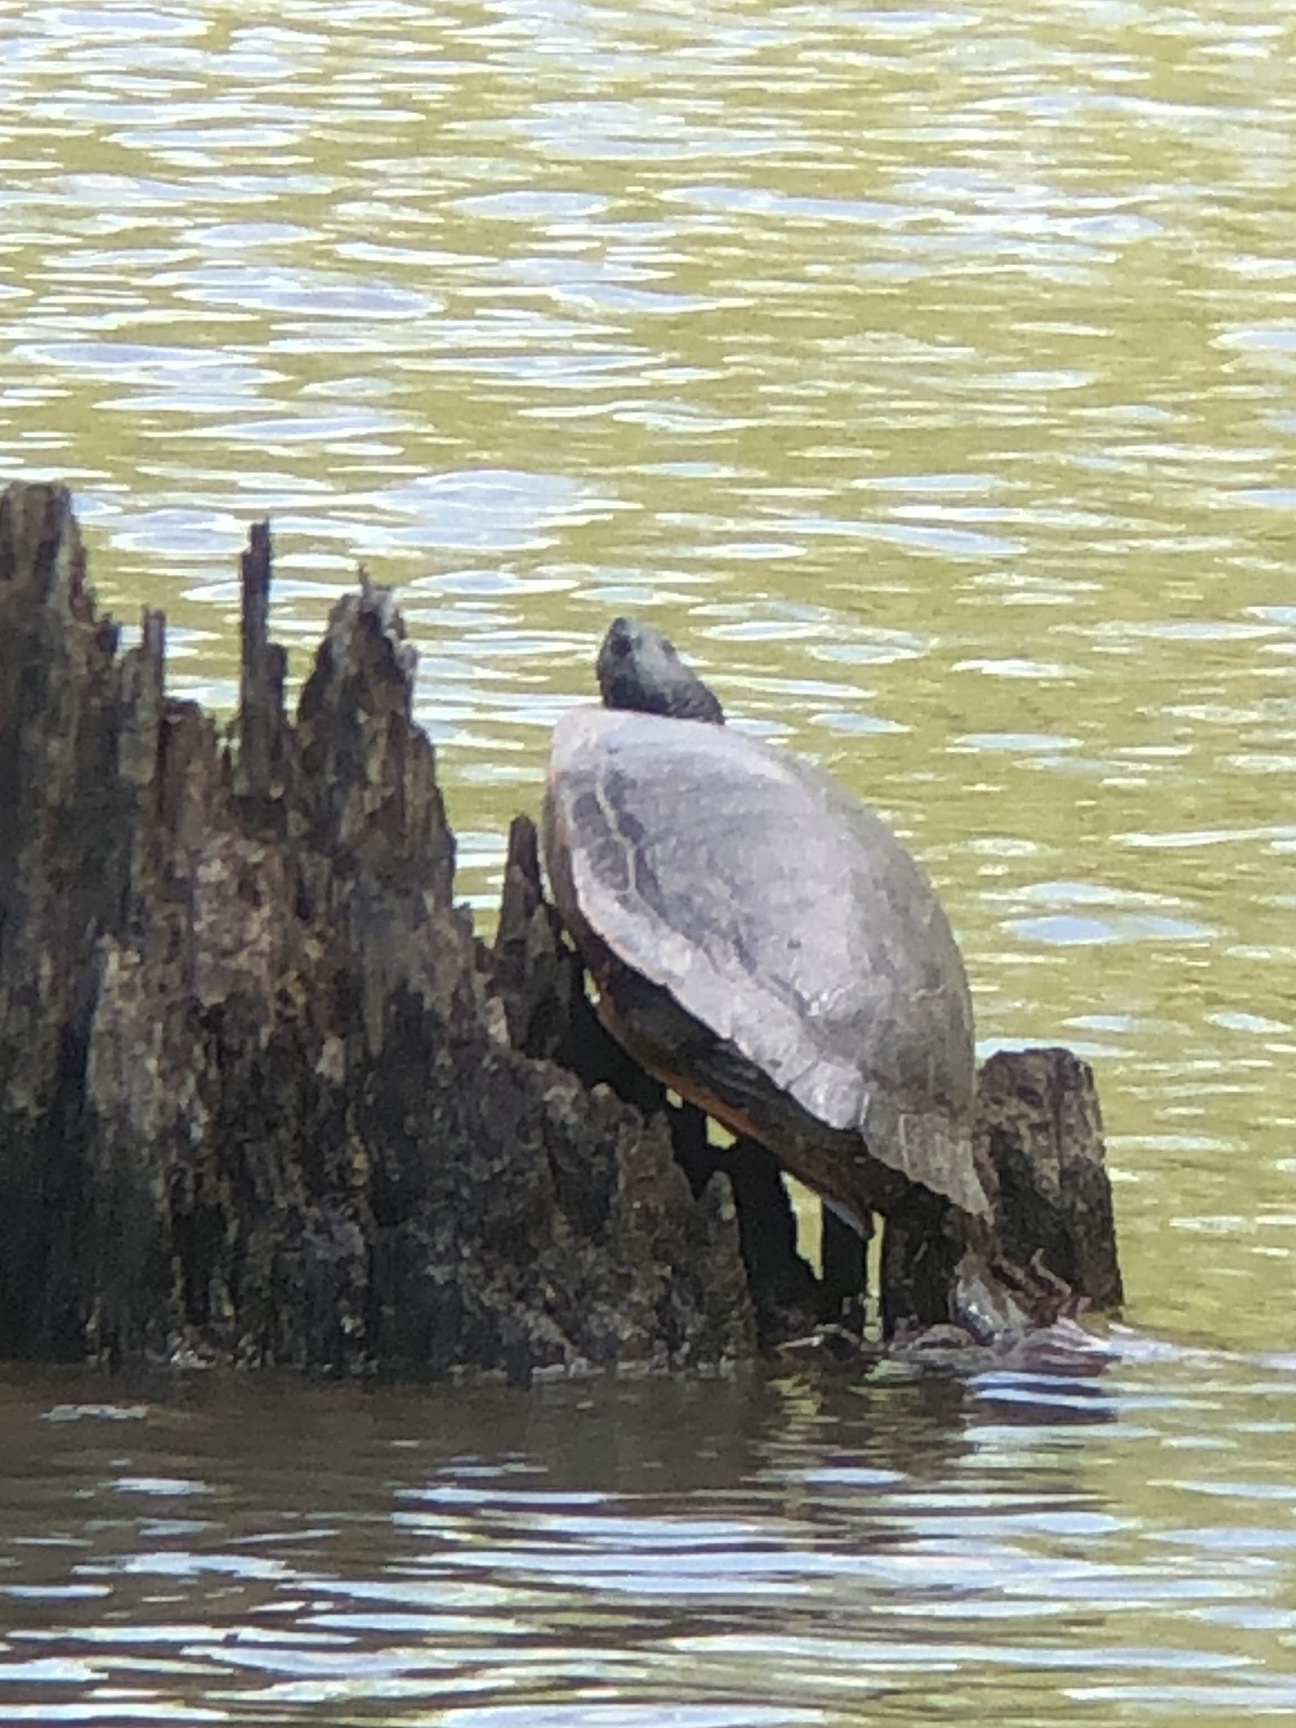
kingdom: Animalia
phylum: Chordata
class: Testudines
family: Emydidae
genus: Pseudemys
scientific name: Pseudemys rubriventris
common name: American red-bellied turtle
